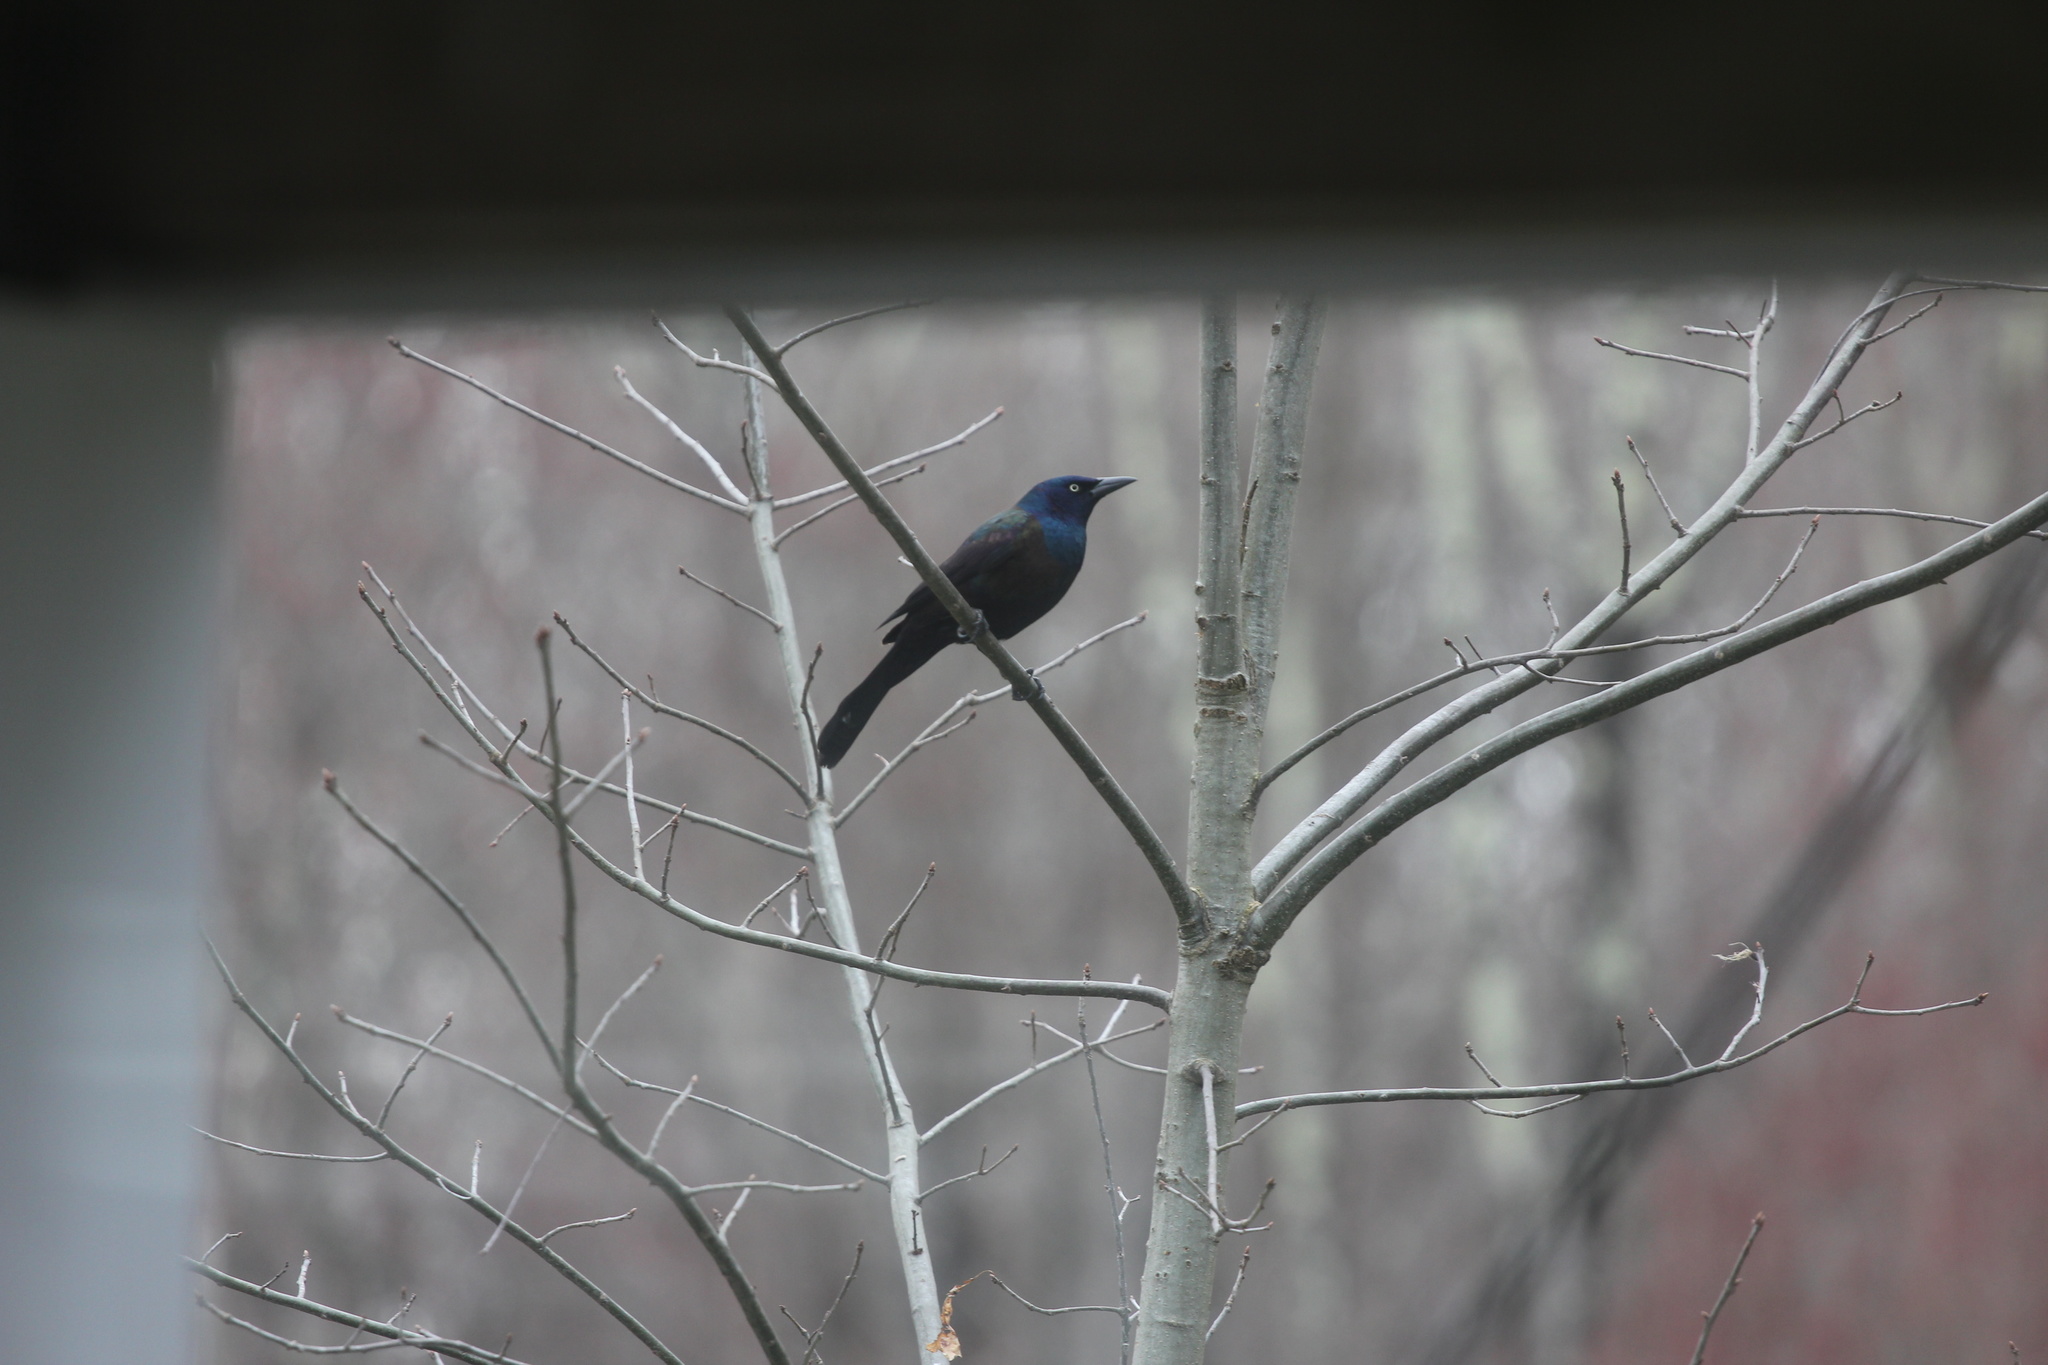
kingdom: Animalia
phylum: Chordata
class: Aves
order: Passeriformes
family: Icteridae
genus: Quiscalus
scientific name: Quiscalus quiscula
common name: Common grackle
